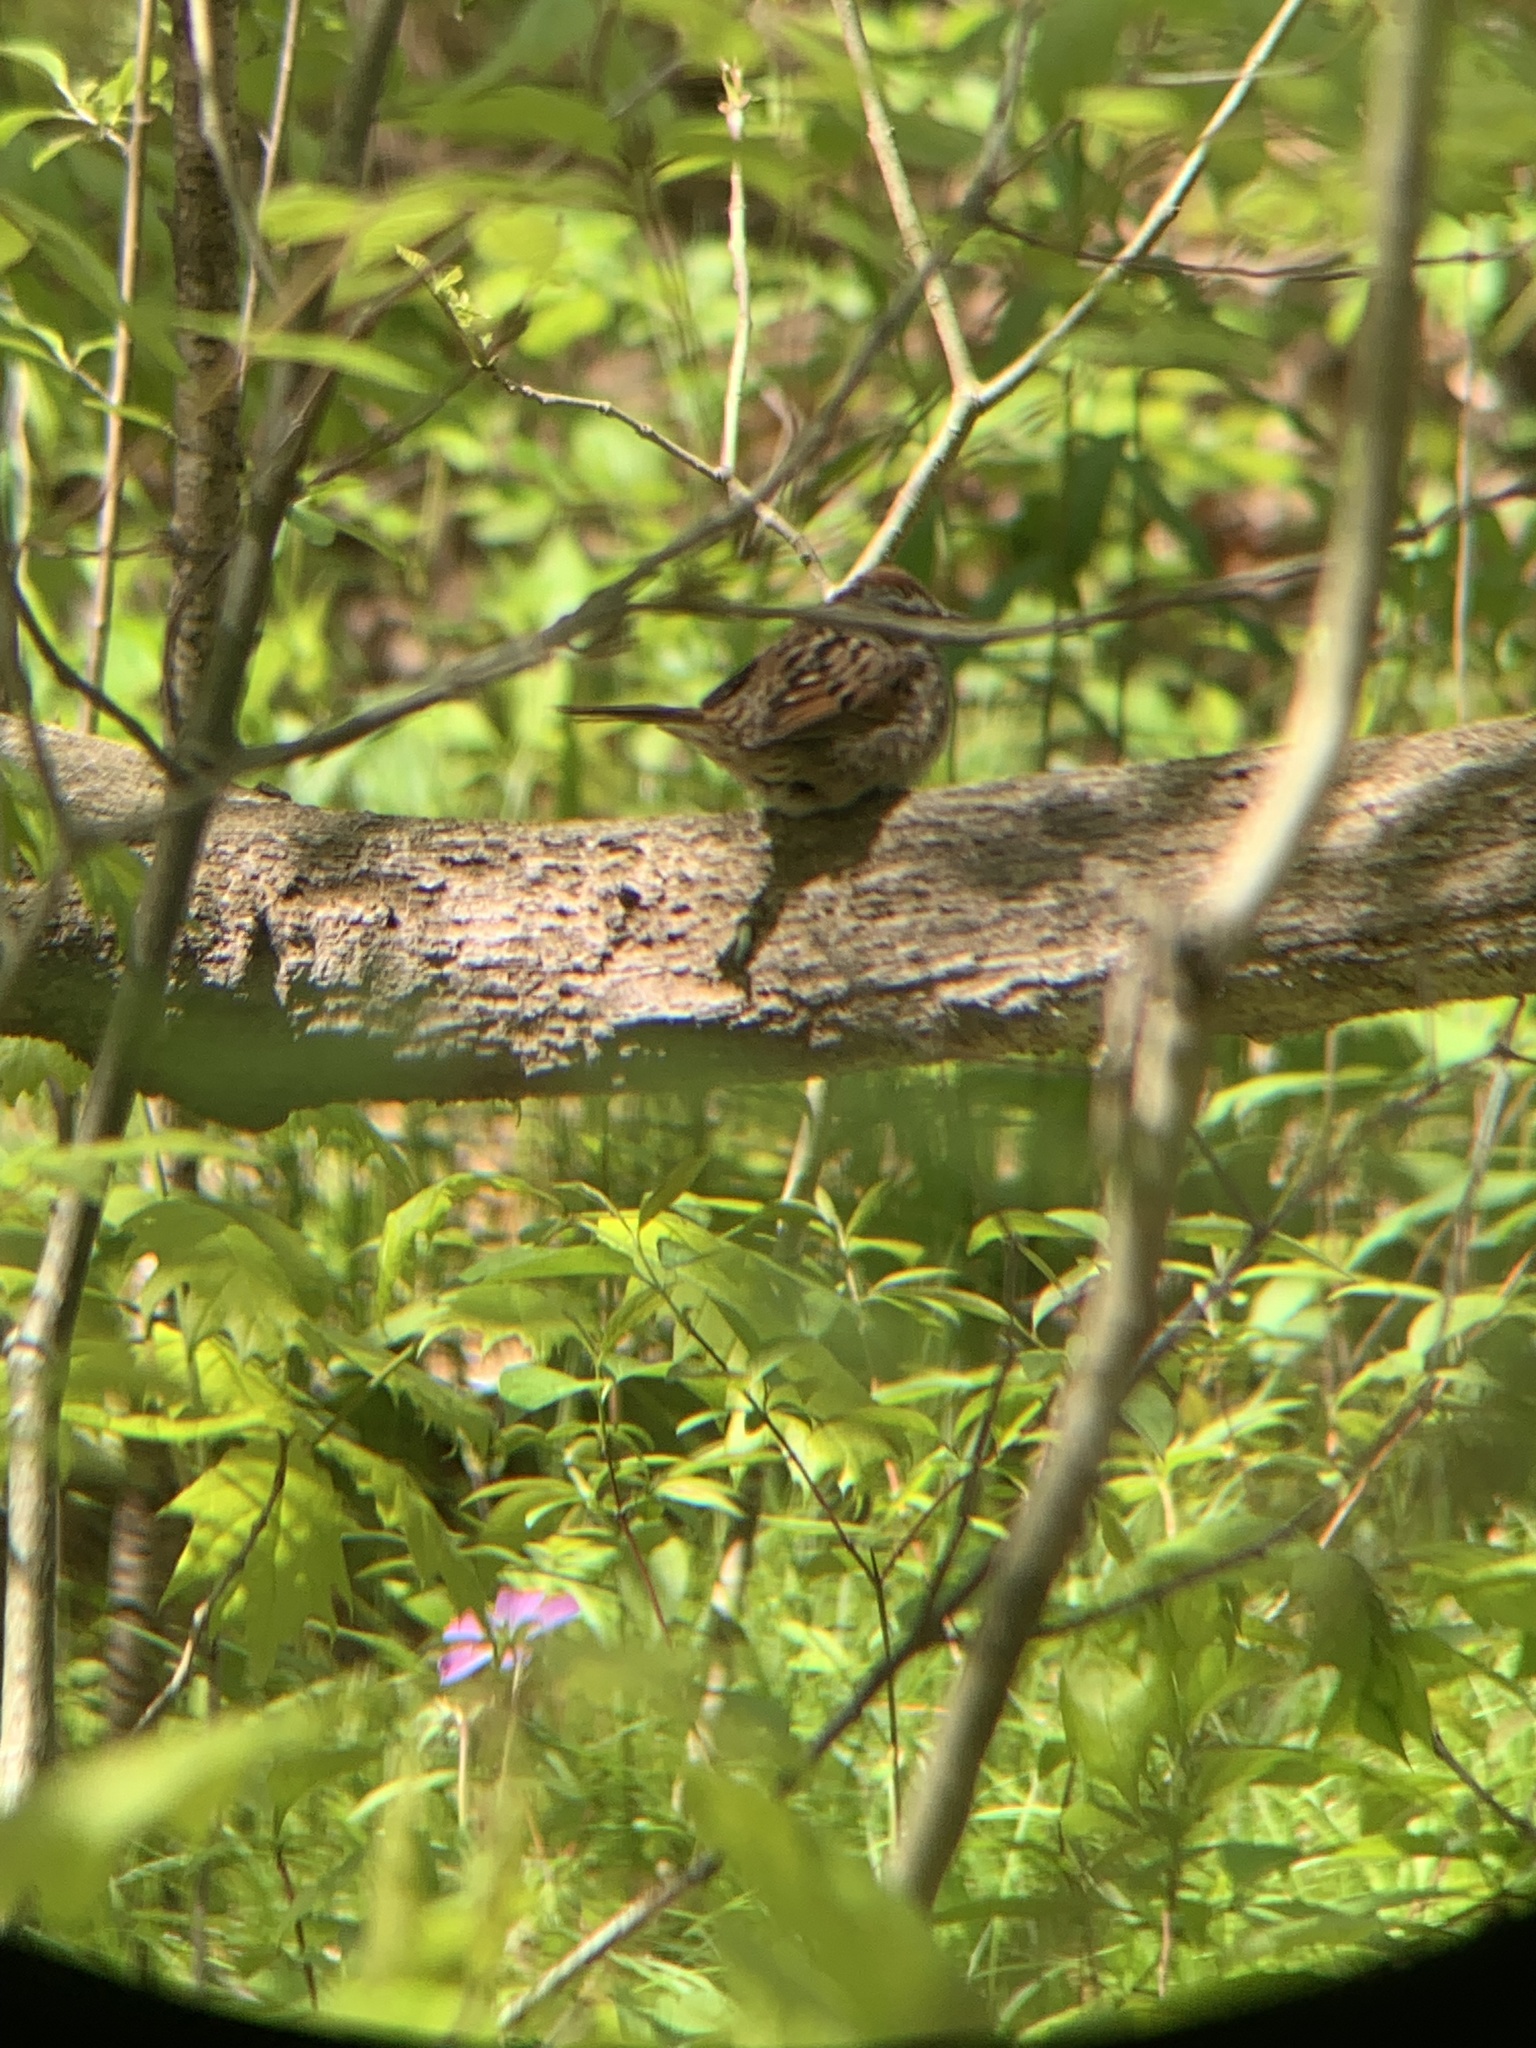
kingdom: Animalia
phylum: Chordata
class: Aves
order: Passeriformes
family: Passerellidae
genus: Melospiza
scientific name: Melospiza georgiana
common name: Swamp sparrow
